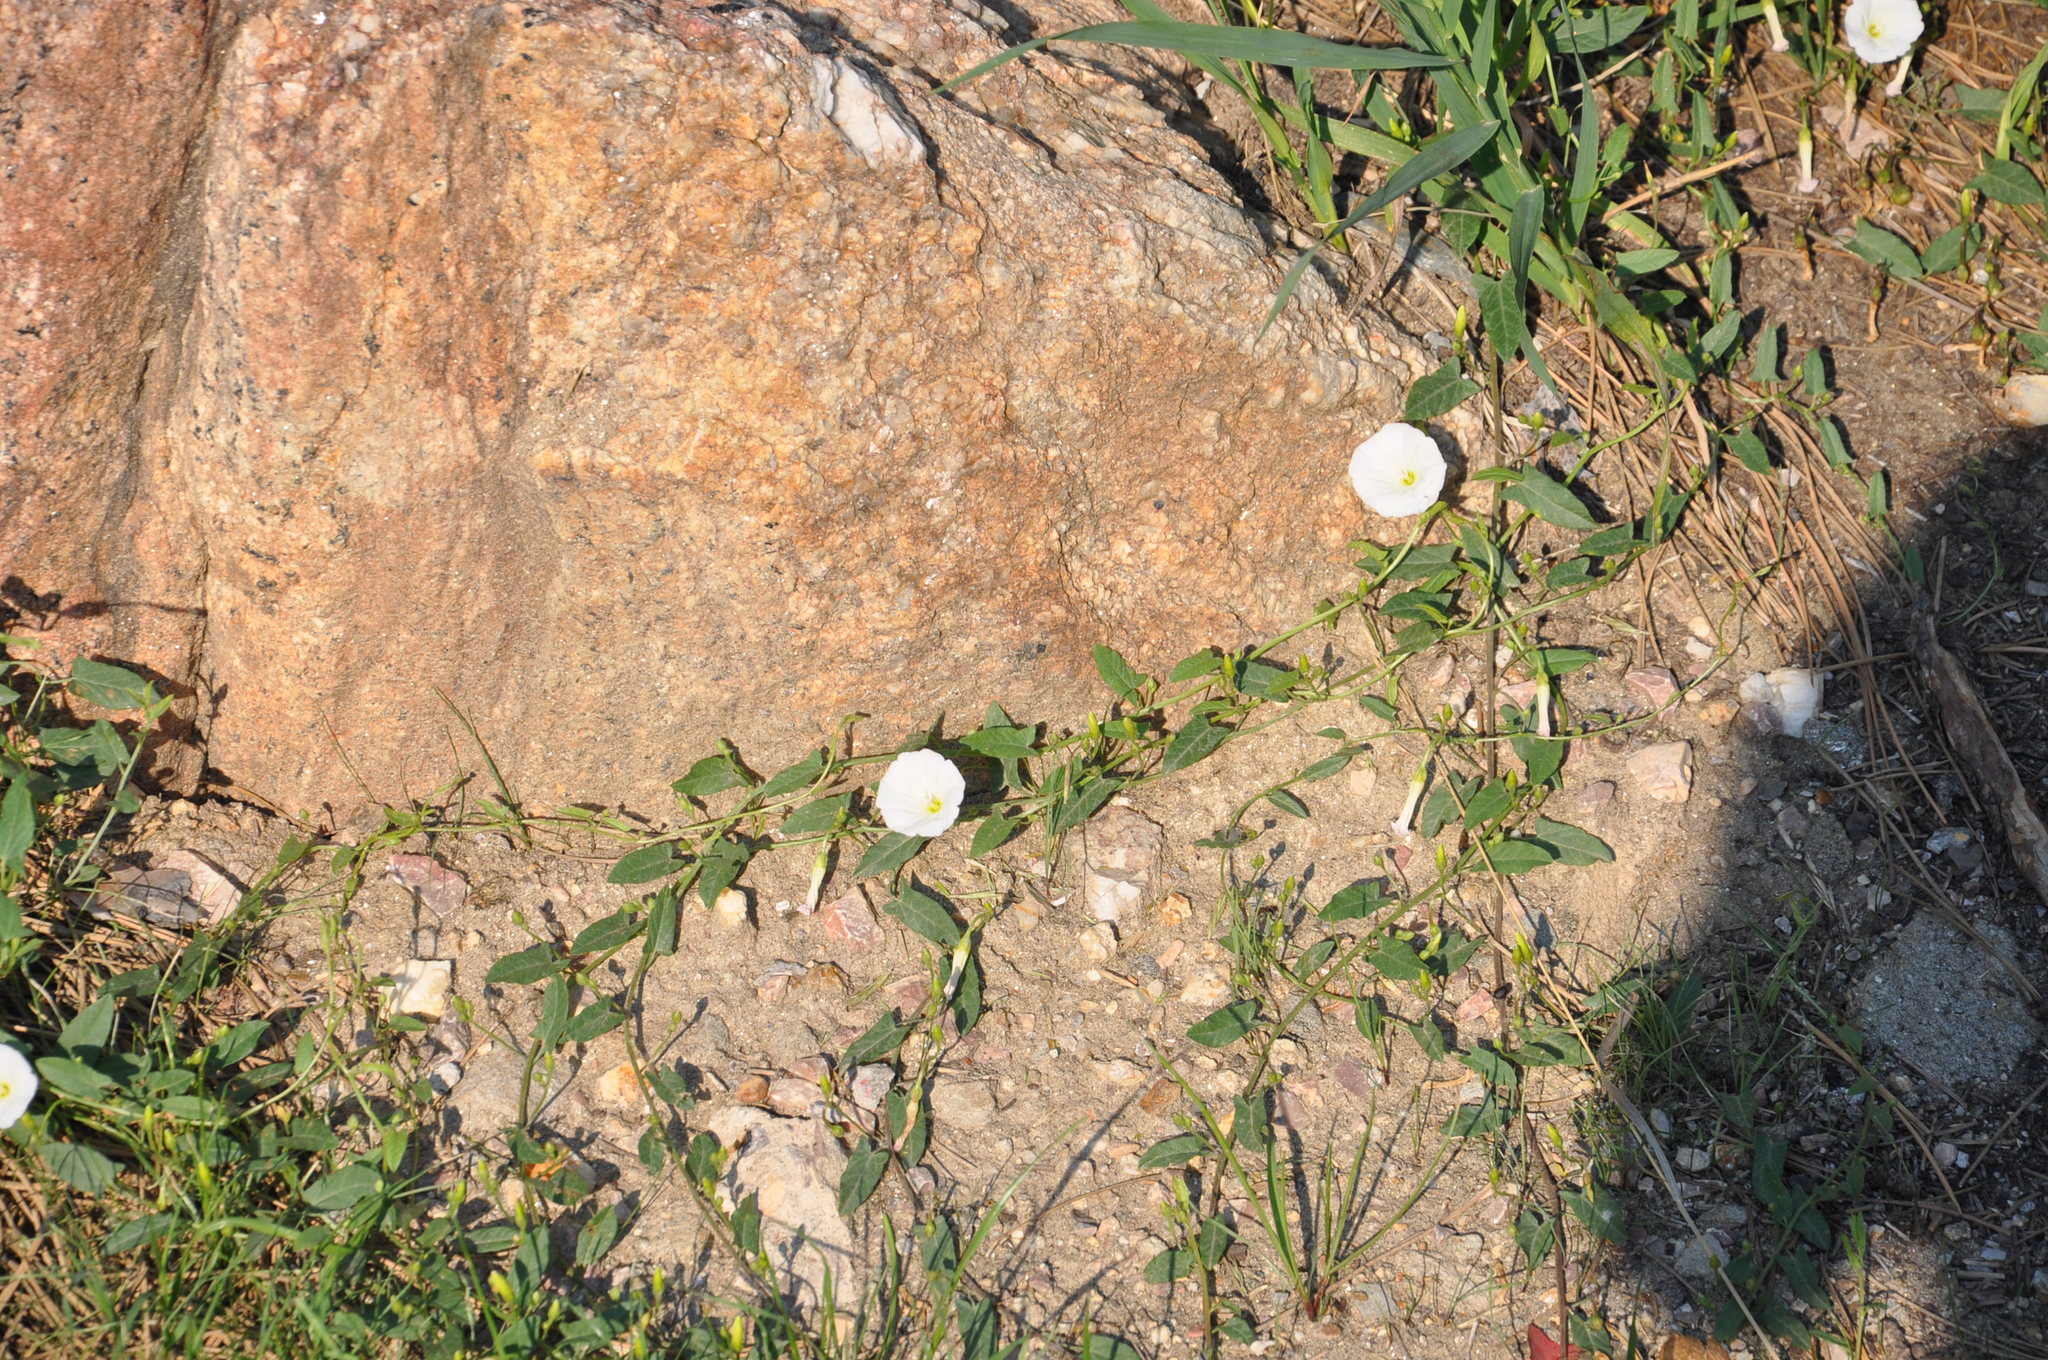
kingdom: Plantae
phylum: Tracheophyta
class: Magnoliopsida
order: Solanales
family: Convolvulaceae
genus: Convolvulus
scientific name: Convolvulus arvensis
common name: Field bindweed
